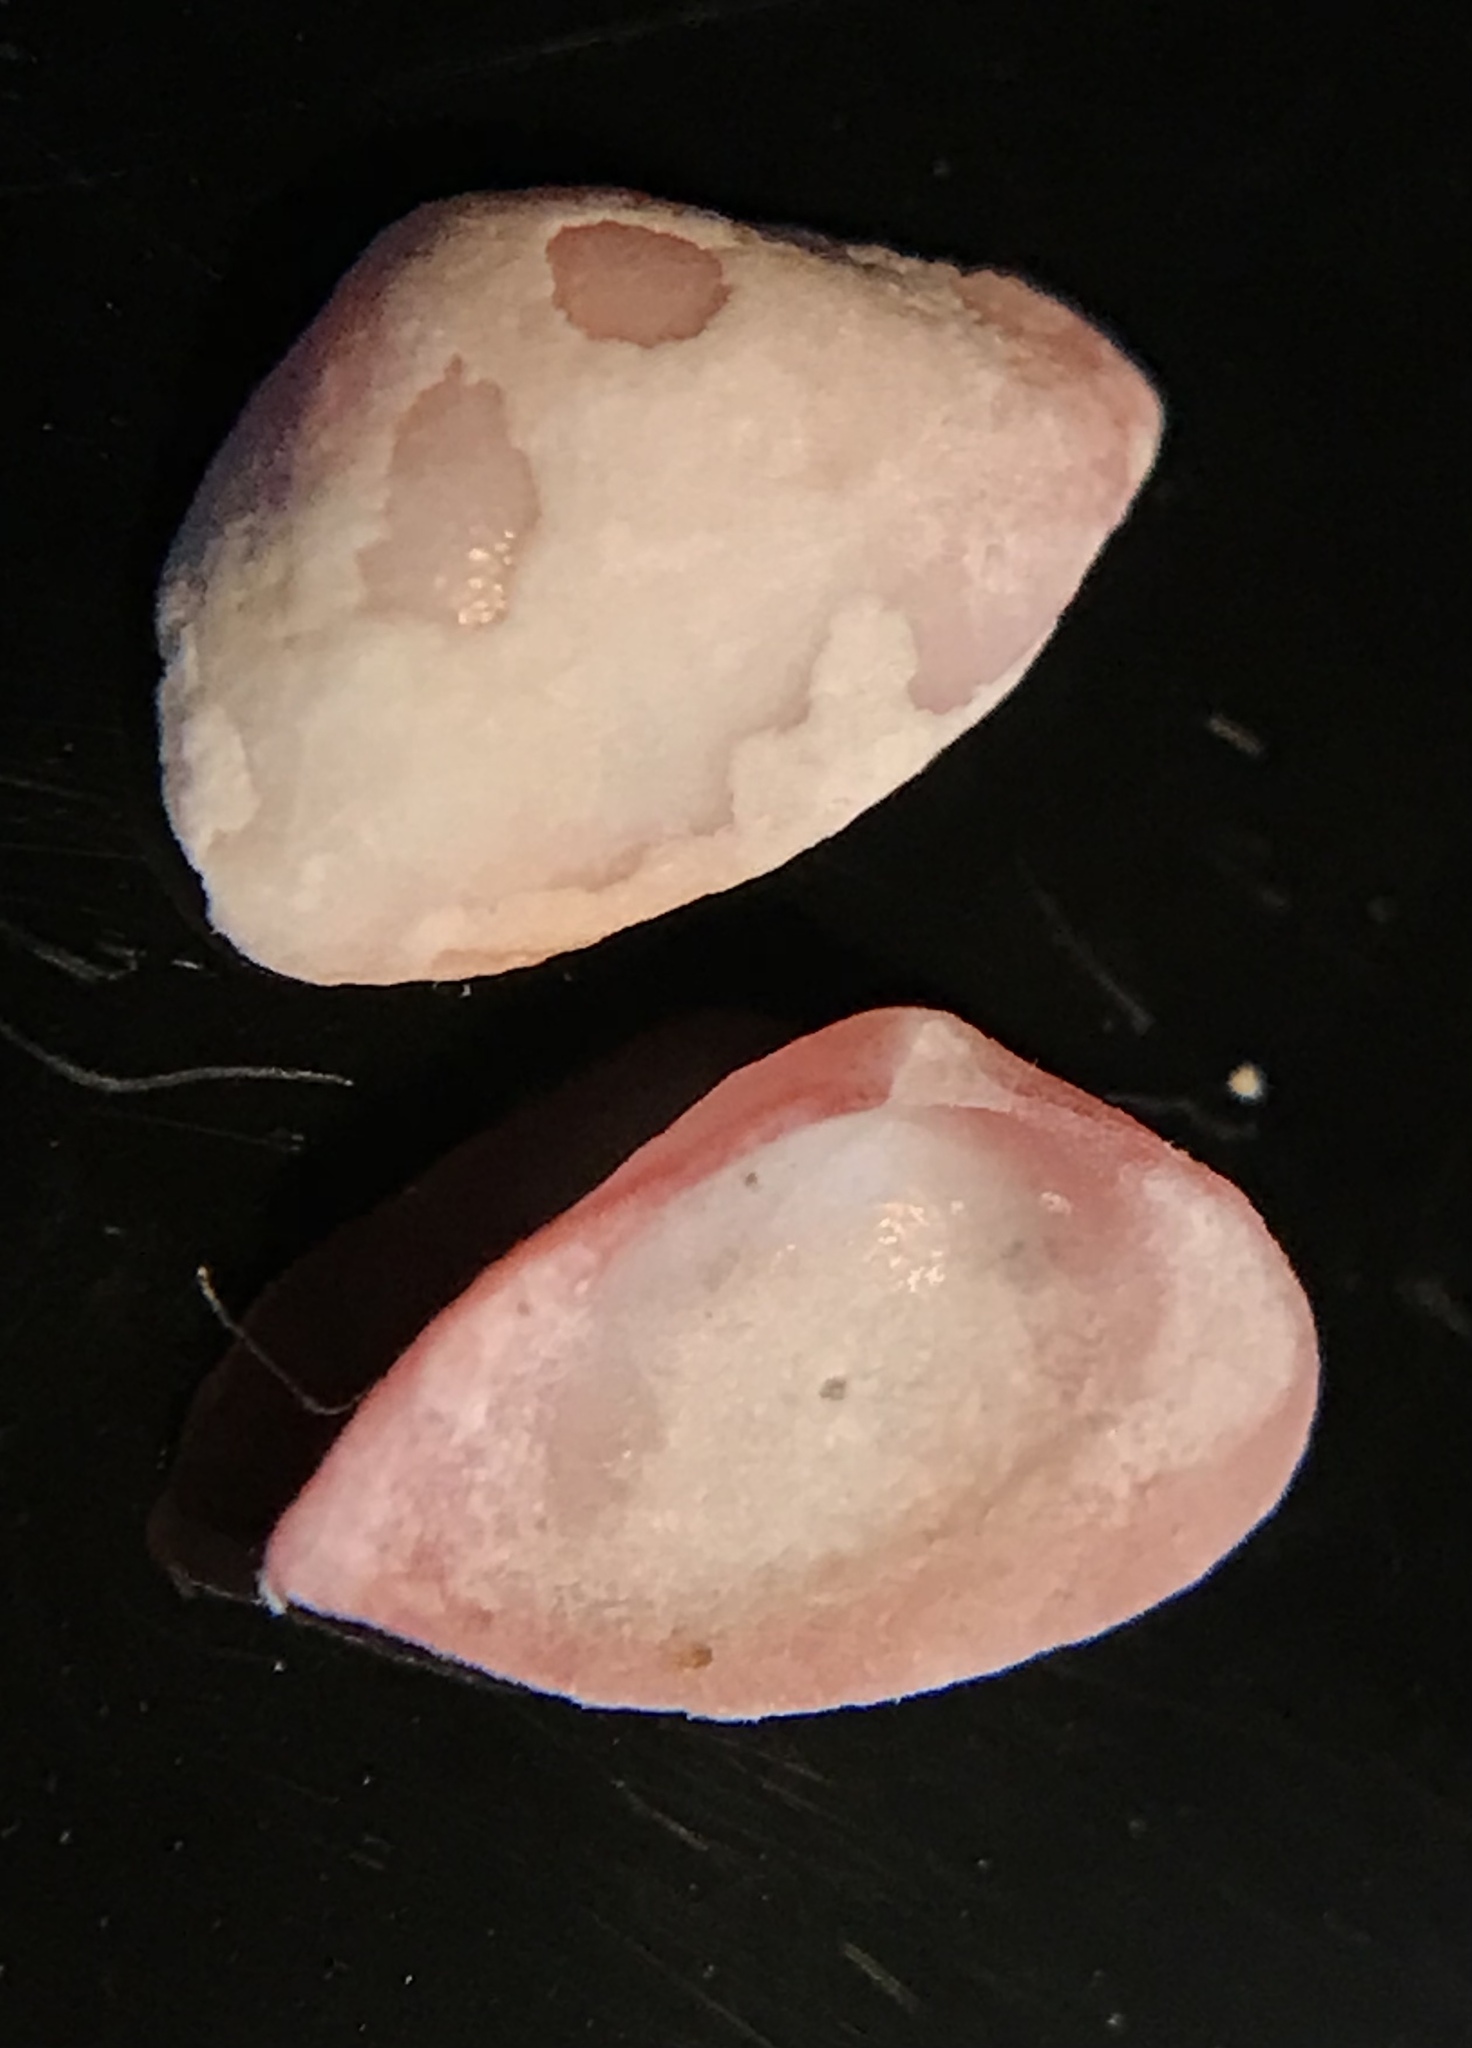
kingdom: Animalia
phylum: Mollusca
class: Bivalvia
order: Myida
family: Corbulidae
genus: Corbula
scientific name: Corbula dietziana
